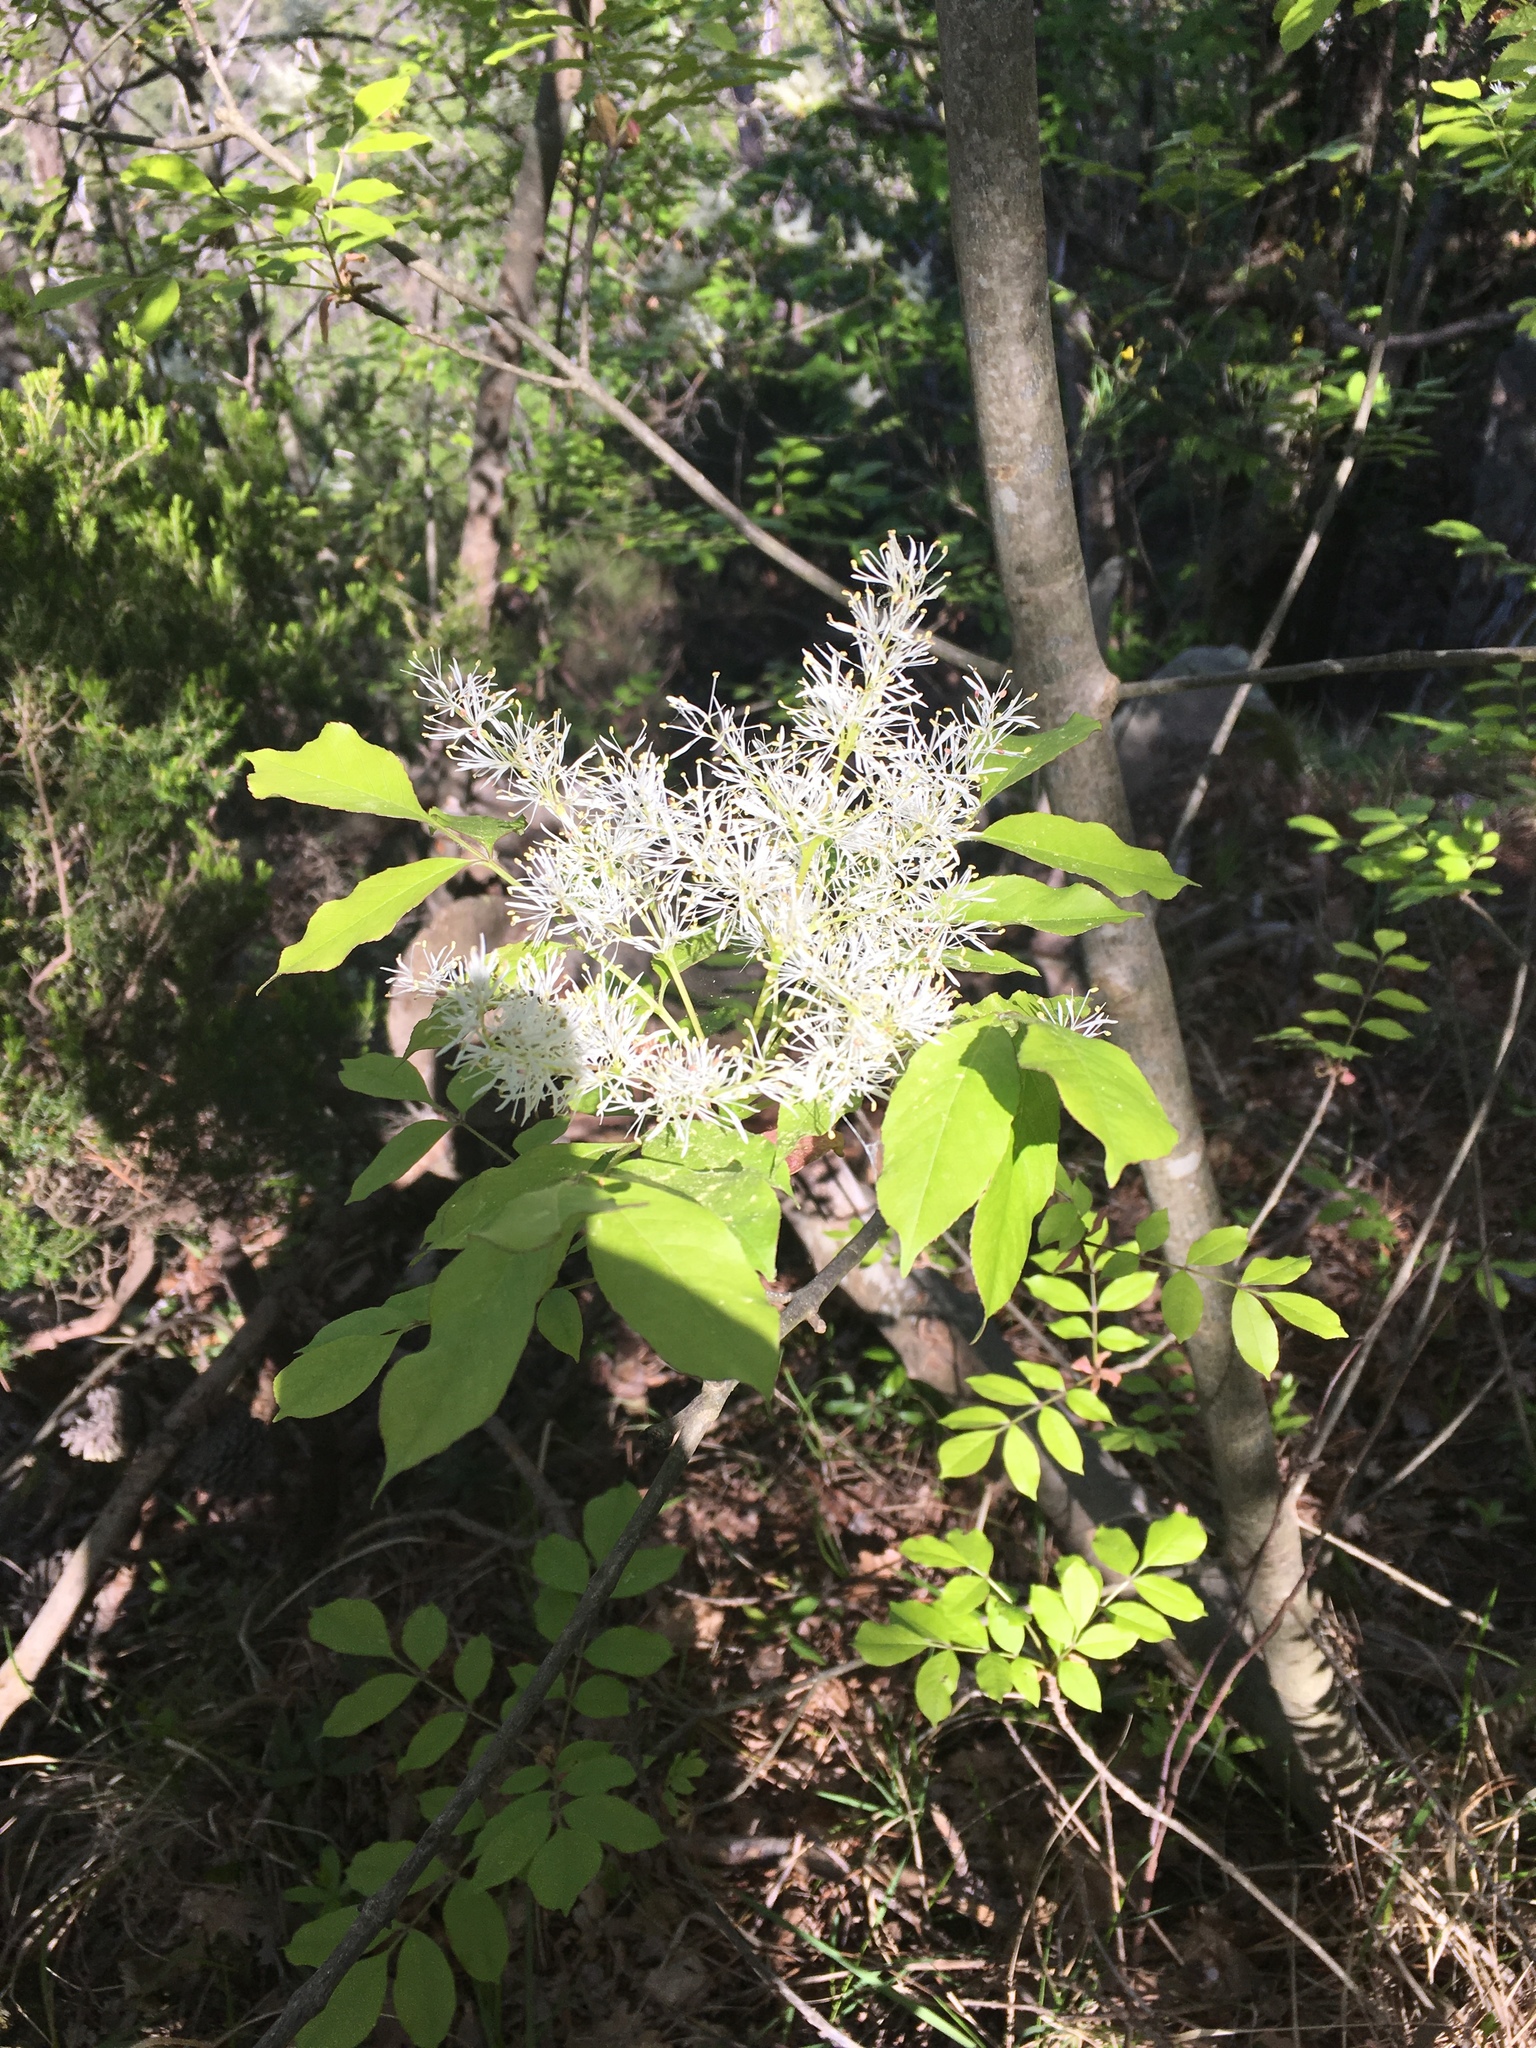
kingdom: Plantae
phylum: Tracheophyta
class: Magnoliopsida
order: Lamiales
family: Oleaceae
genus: Fraxinus
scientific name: Fraxinus ornus
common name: Manna ash
